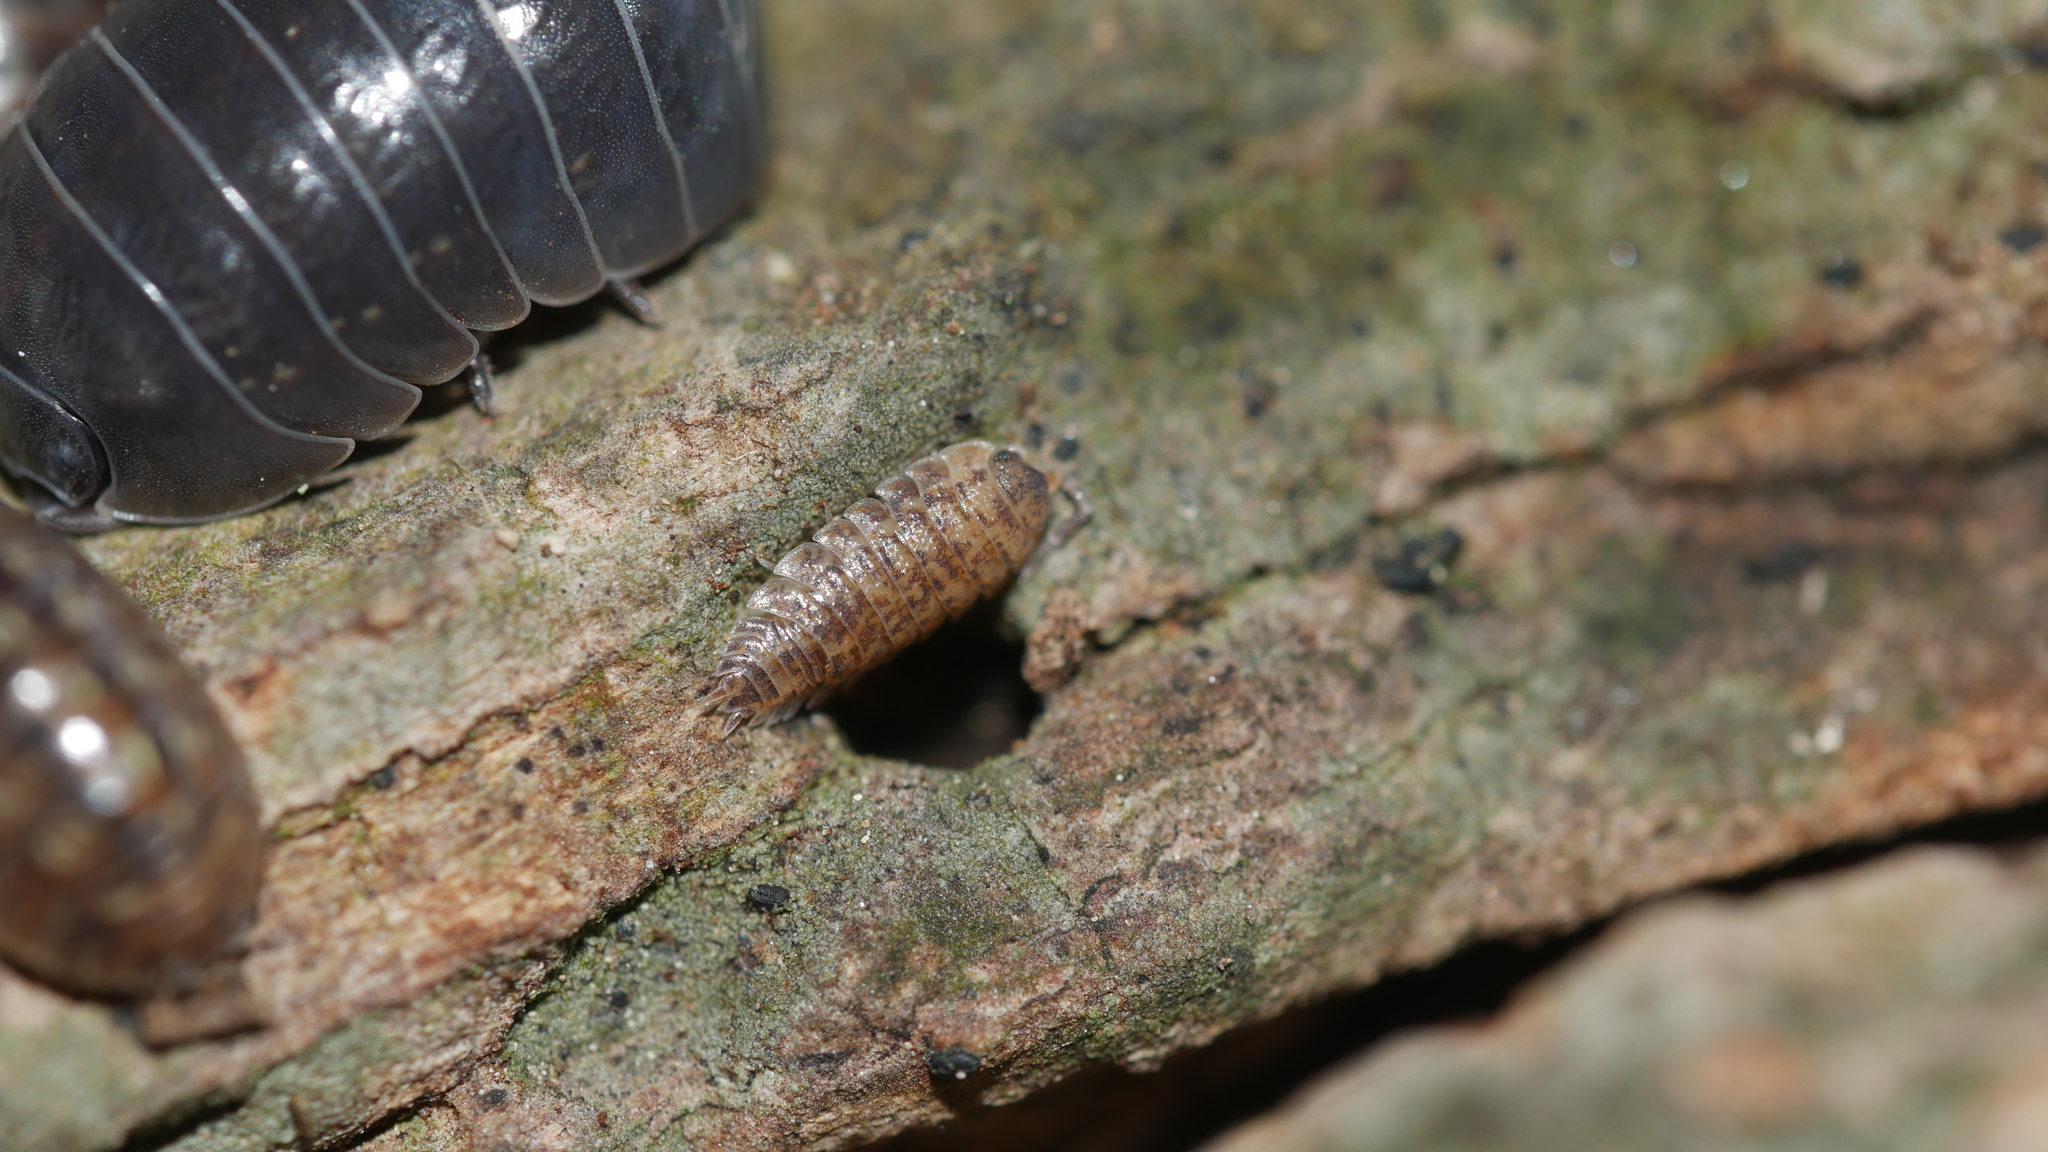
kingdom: Animalia
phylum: Arthropoda
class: Malacostraca
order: Isopoda
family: Porcellionidae
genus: Porcellio
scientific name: Porcellio scaber
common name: Common rough woodlouse
